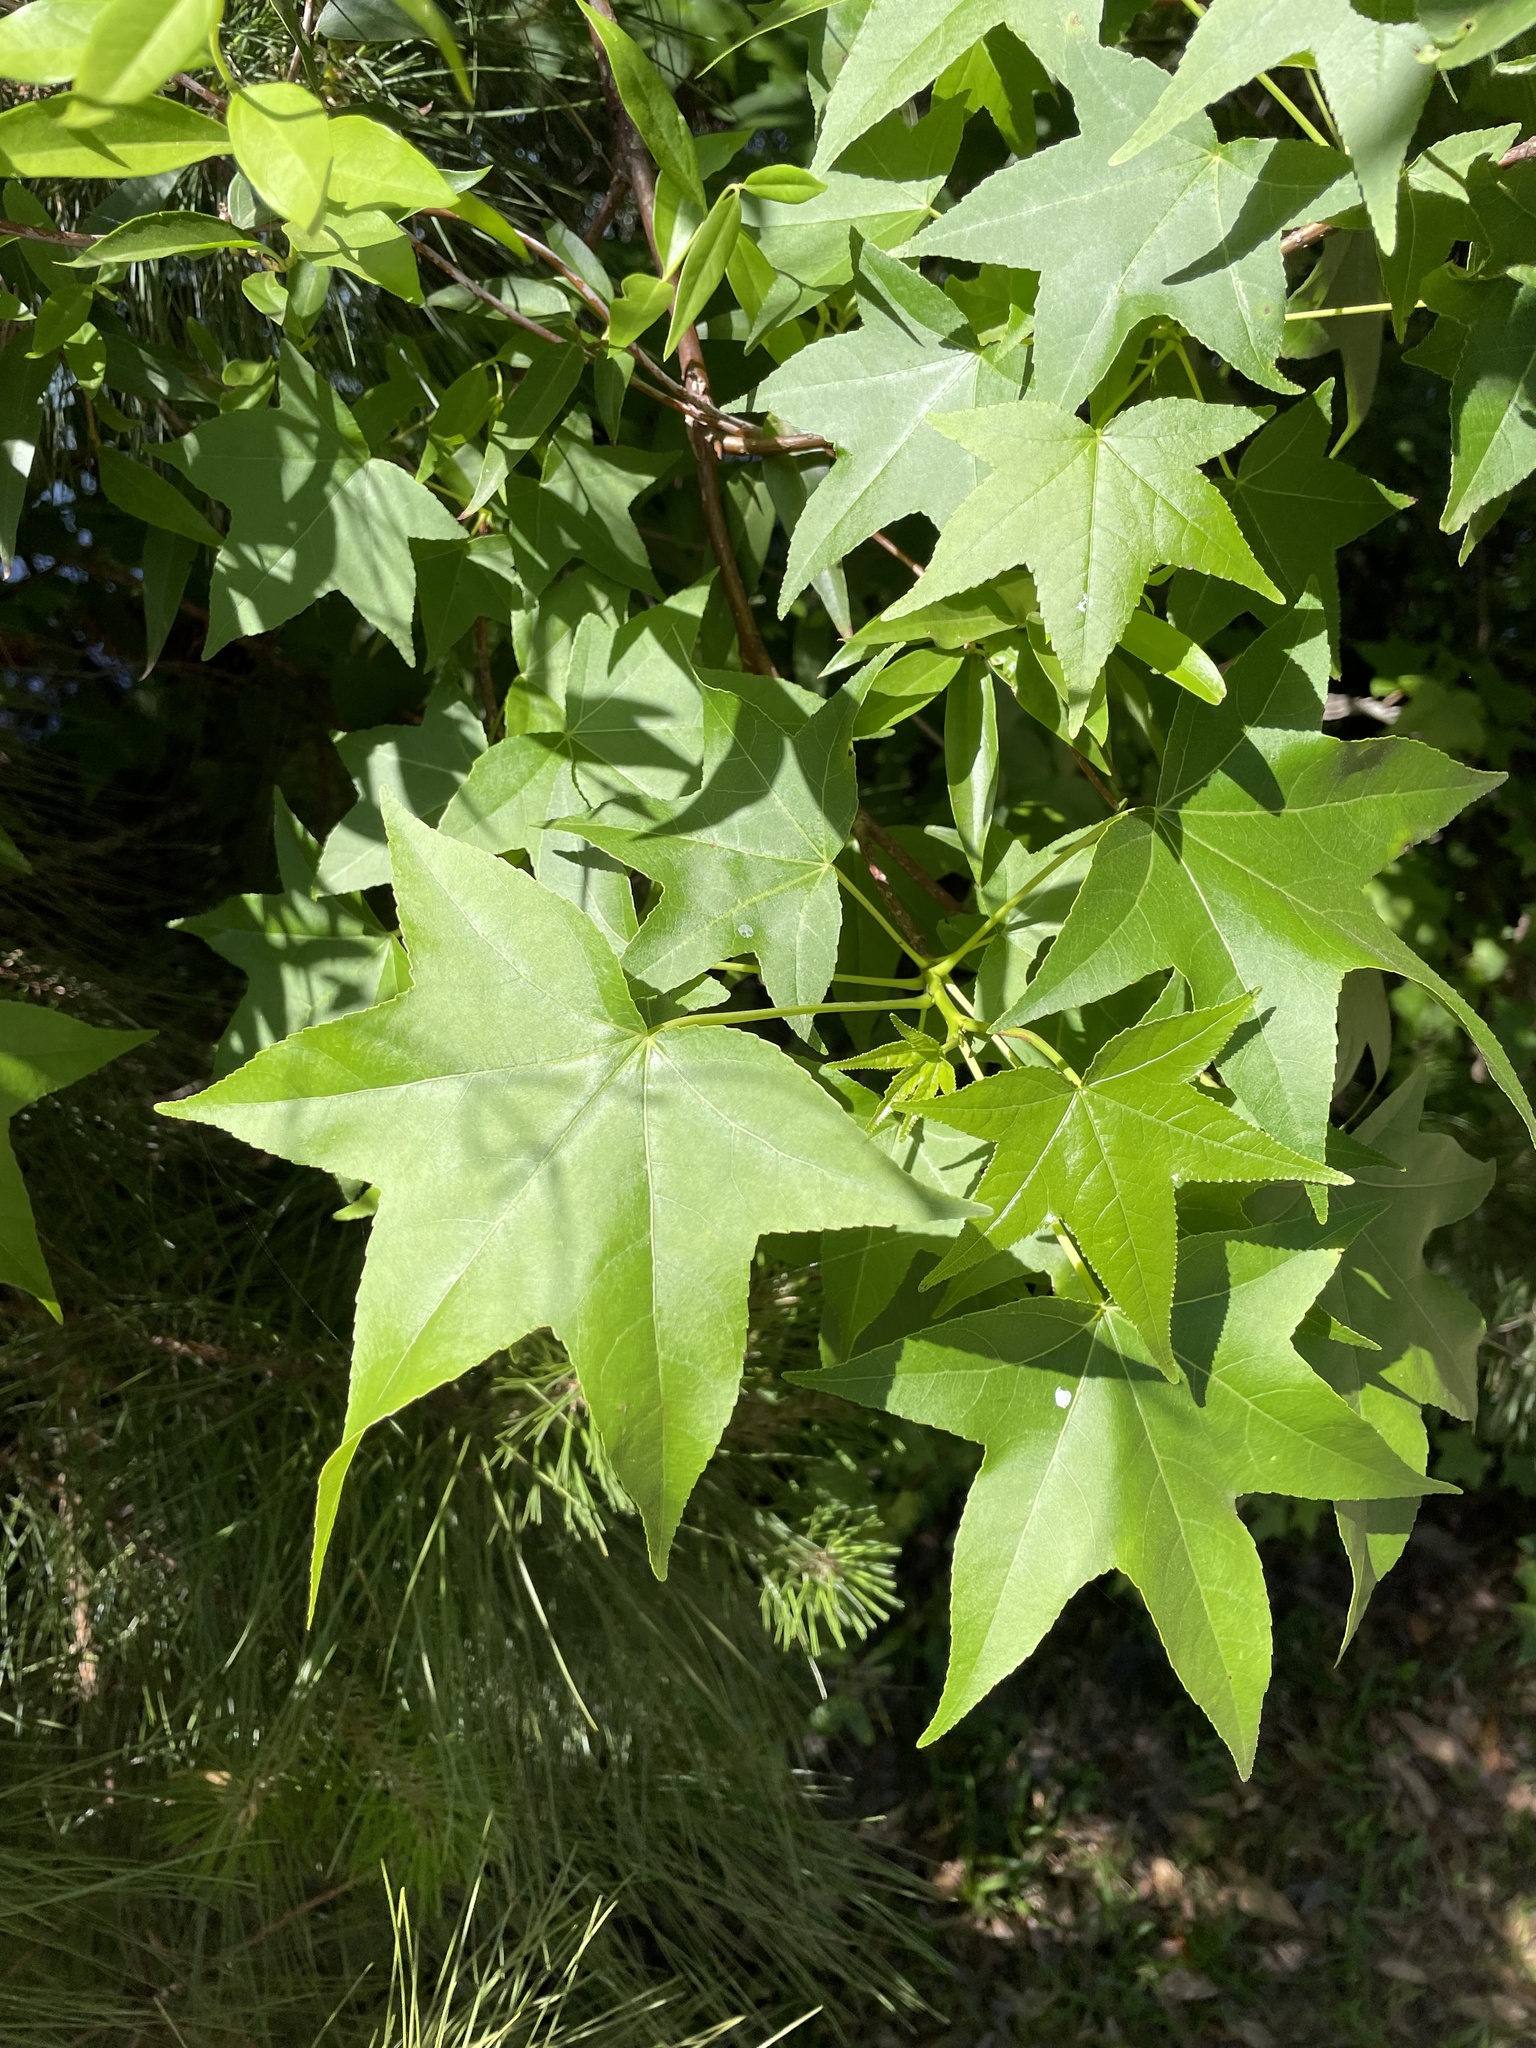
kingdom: Plantae
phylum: Tracheophyta
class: Magnoliopsida
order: Saxifragales
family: Altingiaceae
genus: Liquidambar
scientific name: Liquidambar styraciflua
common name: Sweet gum
